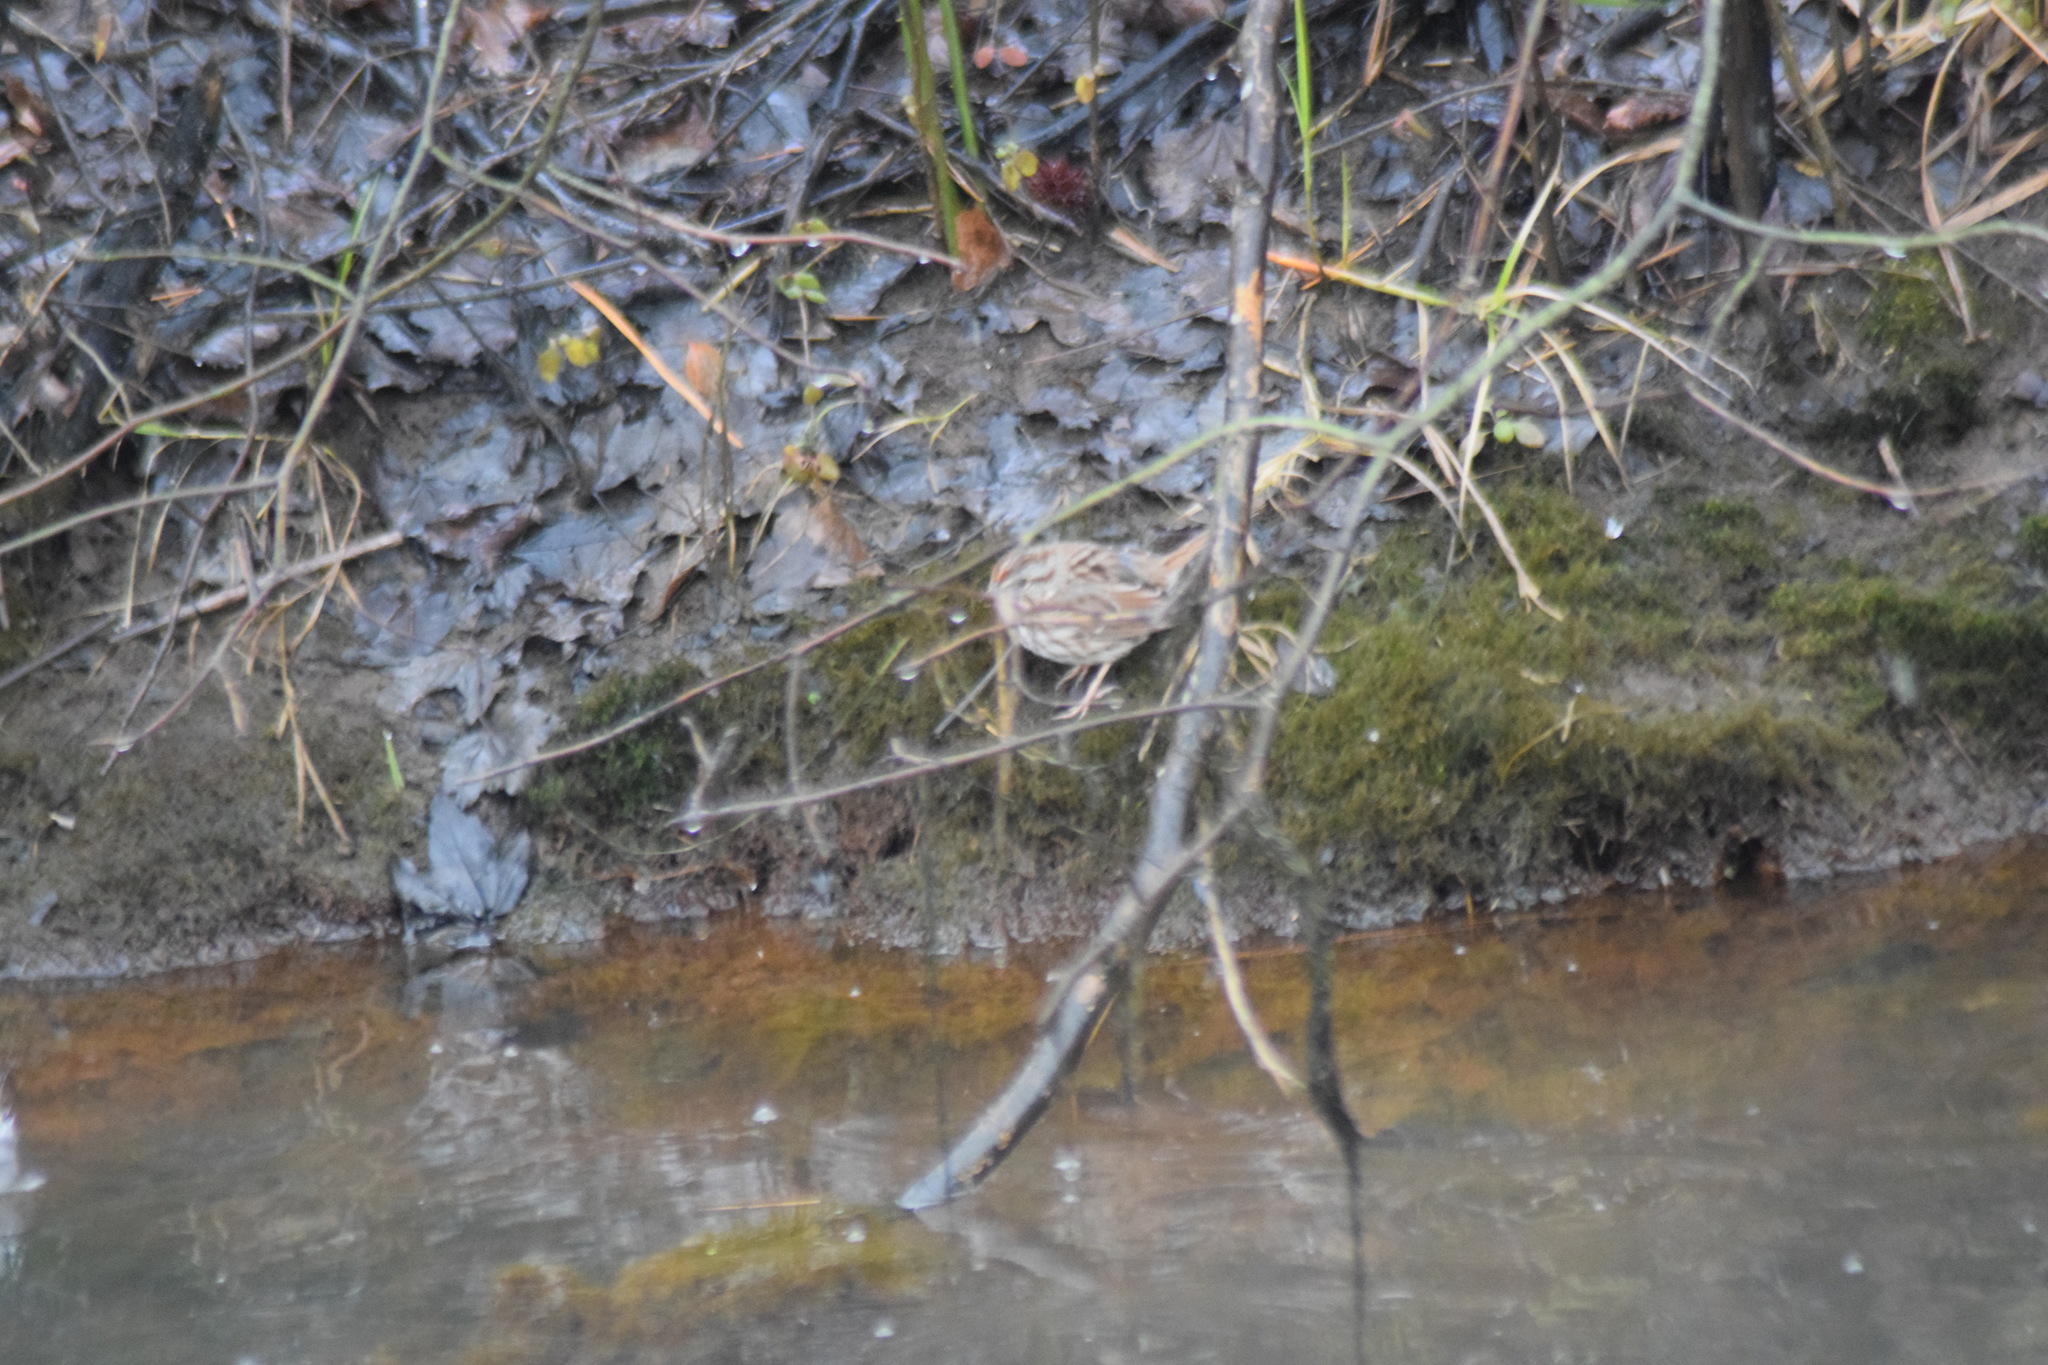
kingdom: Animalia
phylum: Chordata
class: Aves
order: Passeriformes
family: Passerellidae
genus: Melospiza
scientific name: Melospiza melodia
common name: Song sparrow
